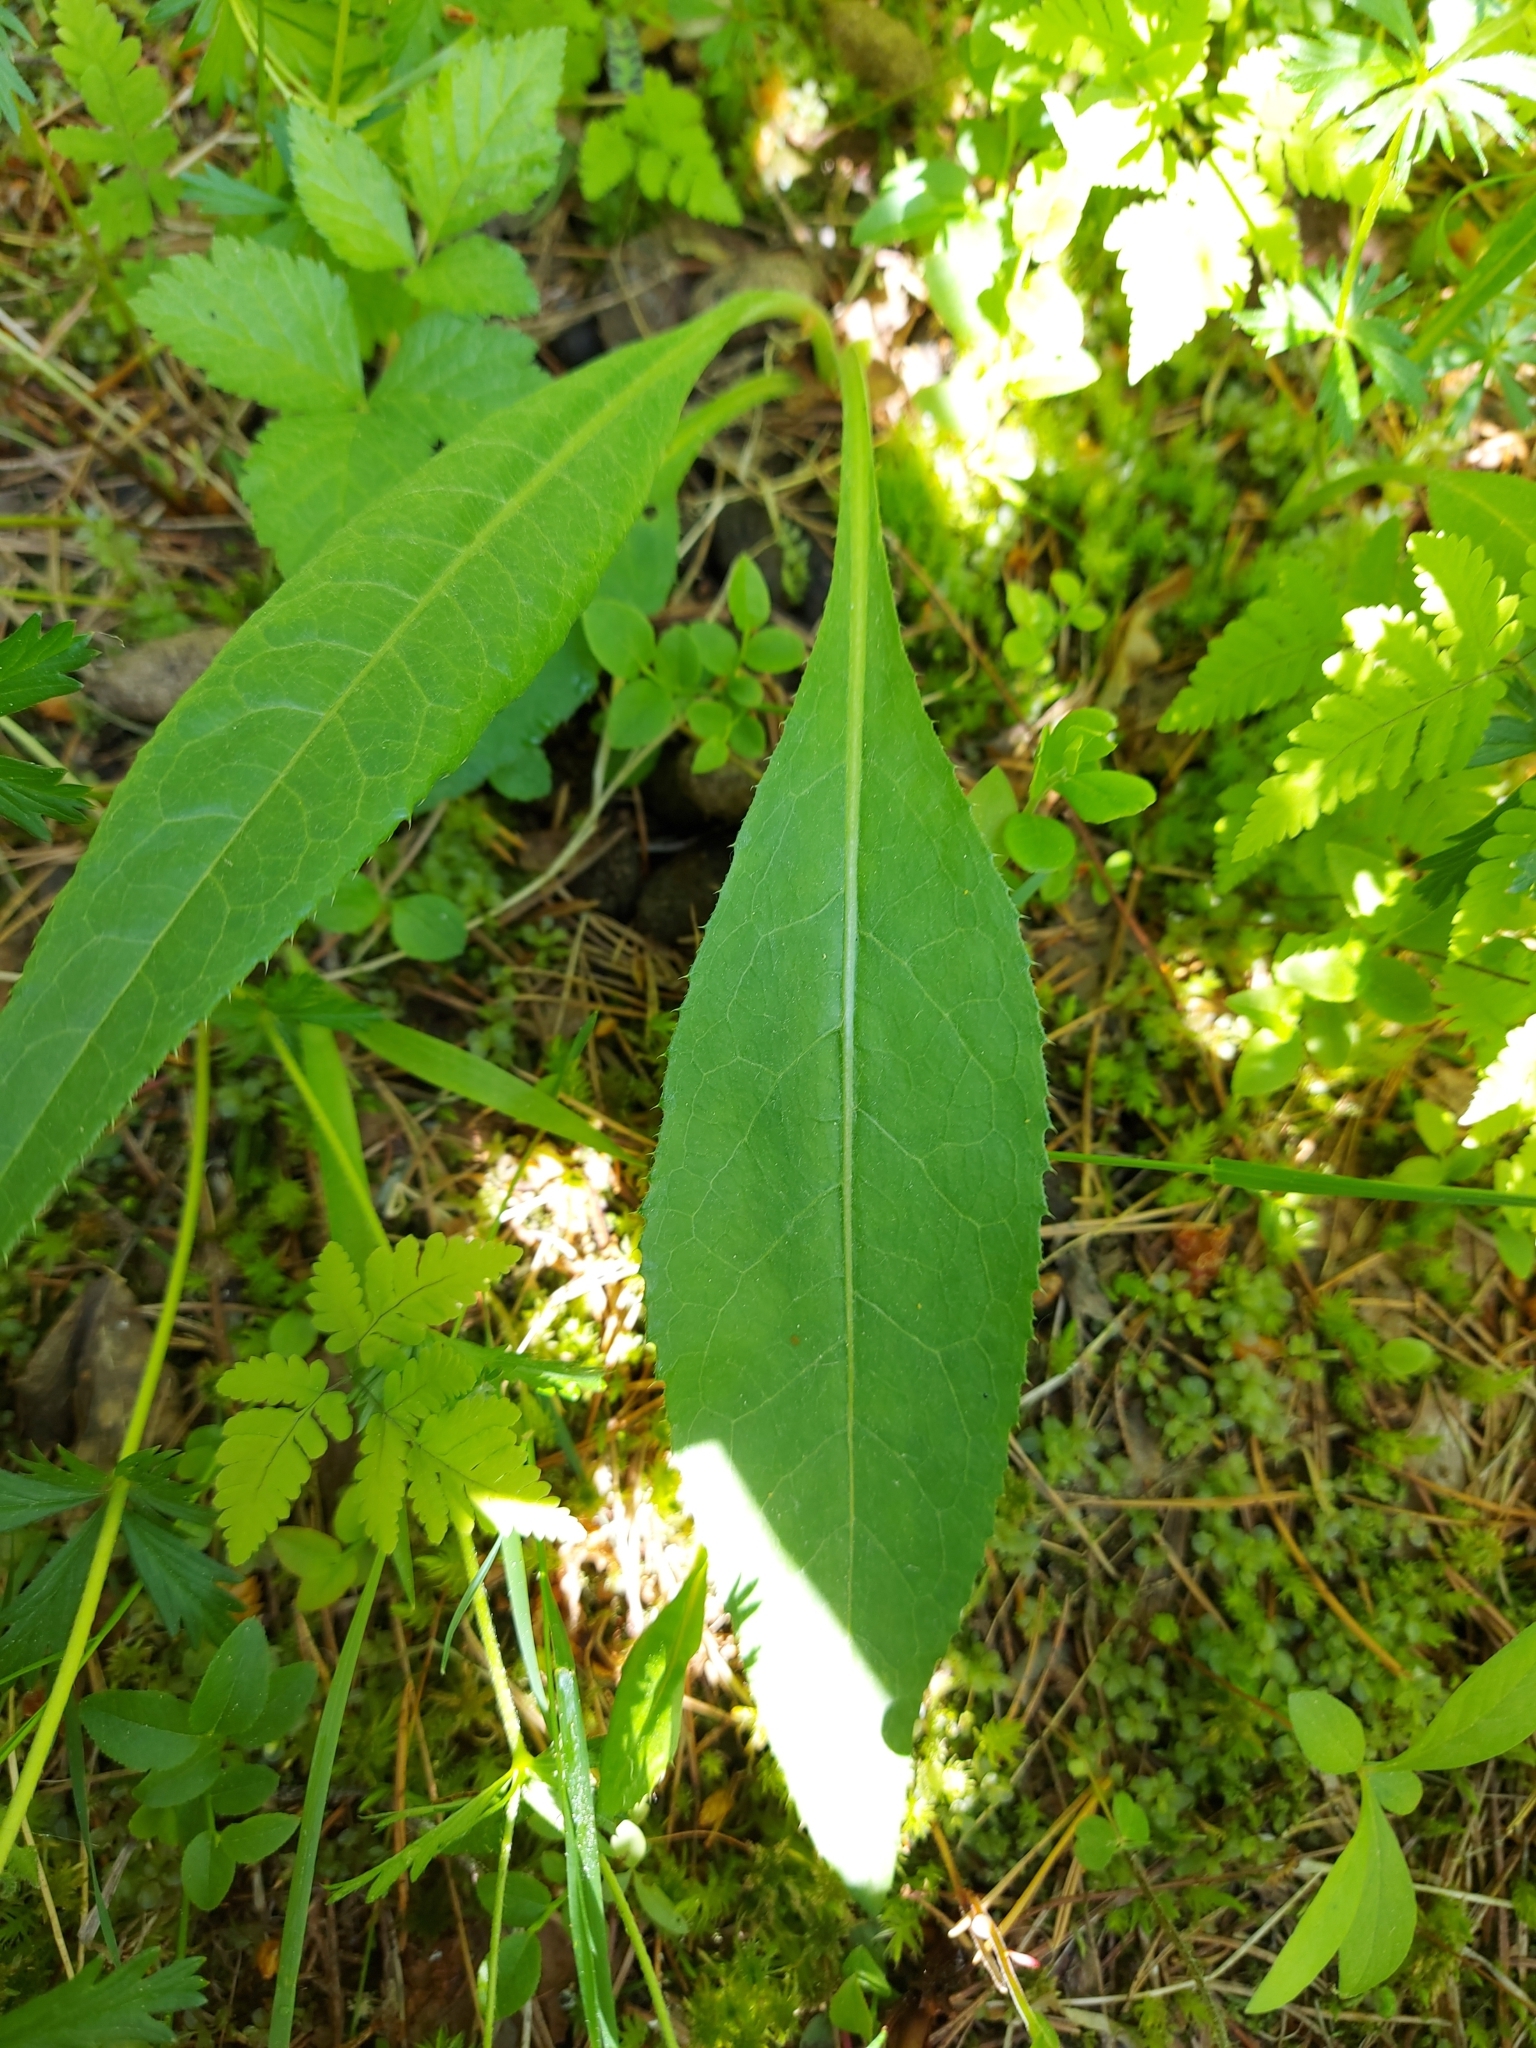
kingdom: Plantae
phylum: Tracheophyta
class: Magnoliopsida
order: Asterales
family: Asteraceae
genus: Cirsium
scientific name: Cirsium heterophyllum
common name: Melancholy thistle
